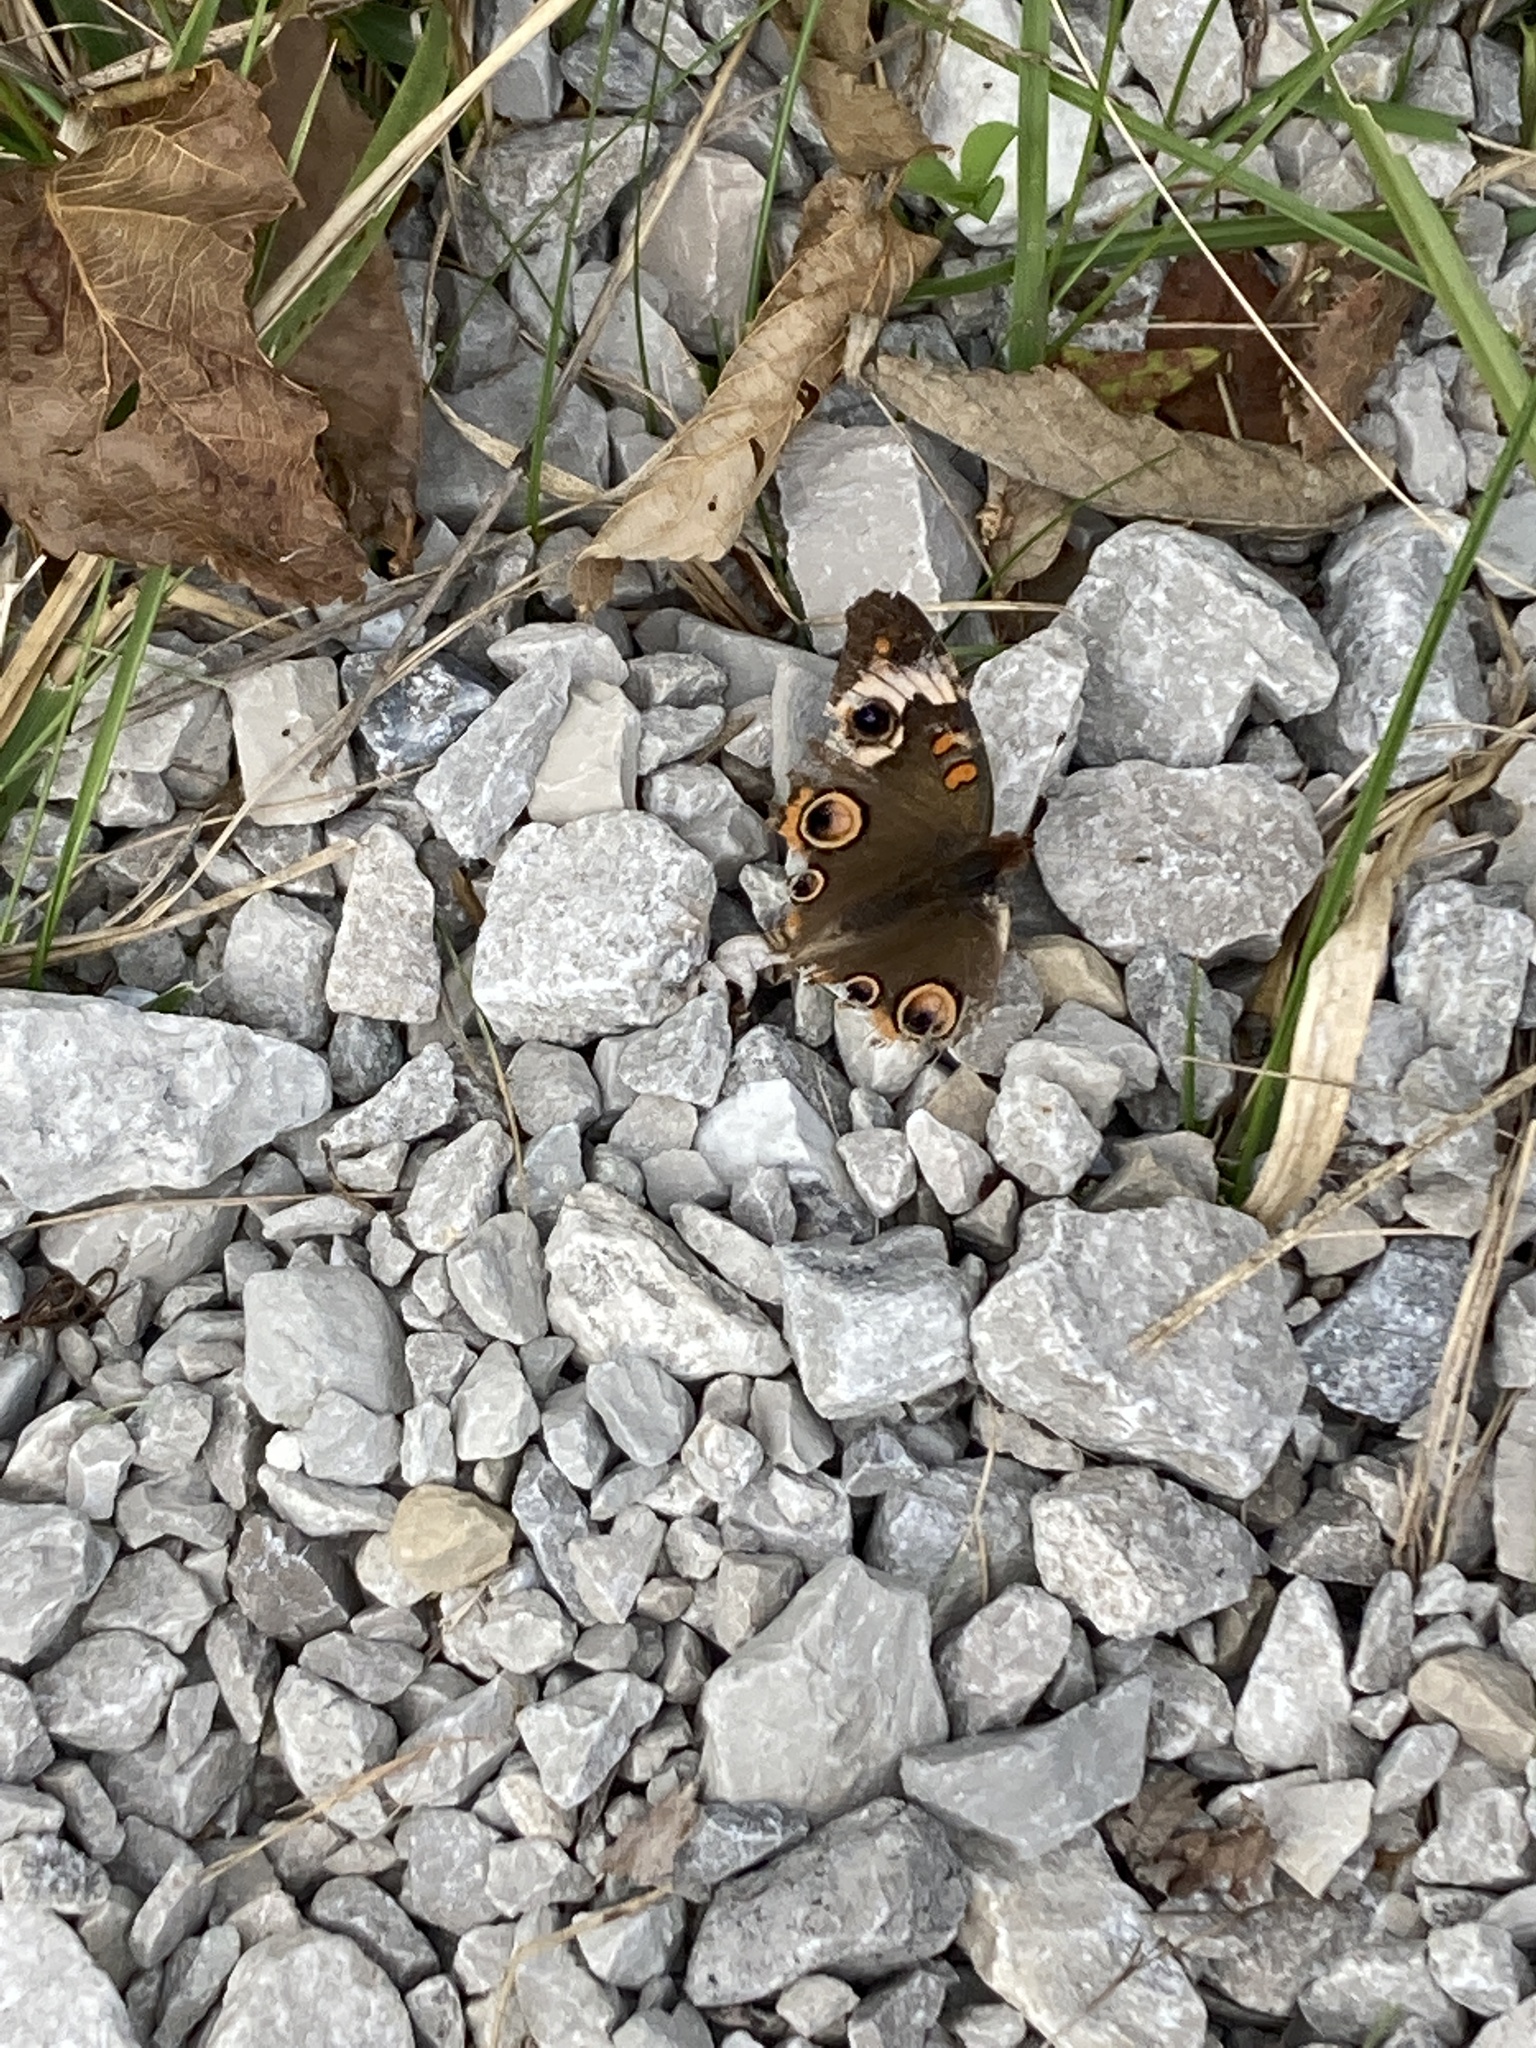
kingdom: Animalia
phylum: Arthropoda
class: Insecta
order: Lepidoptera
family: Nymphalidae
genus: Junonia
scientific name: Junonia coenia
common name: Common buckeye
